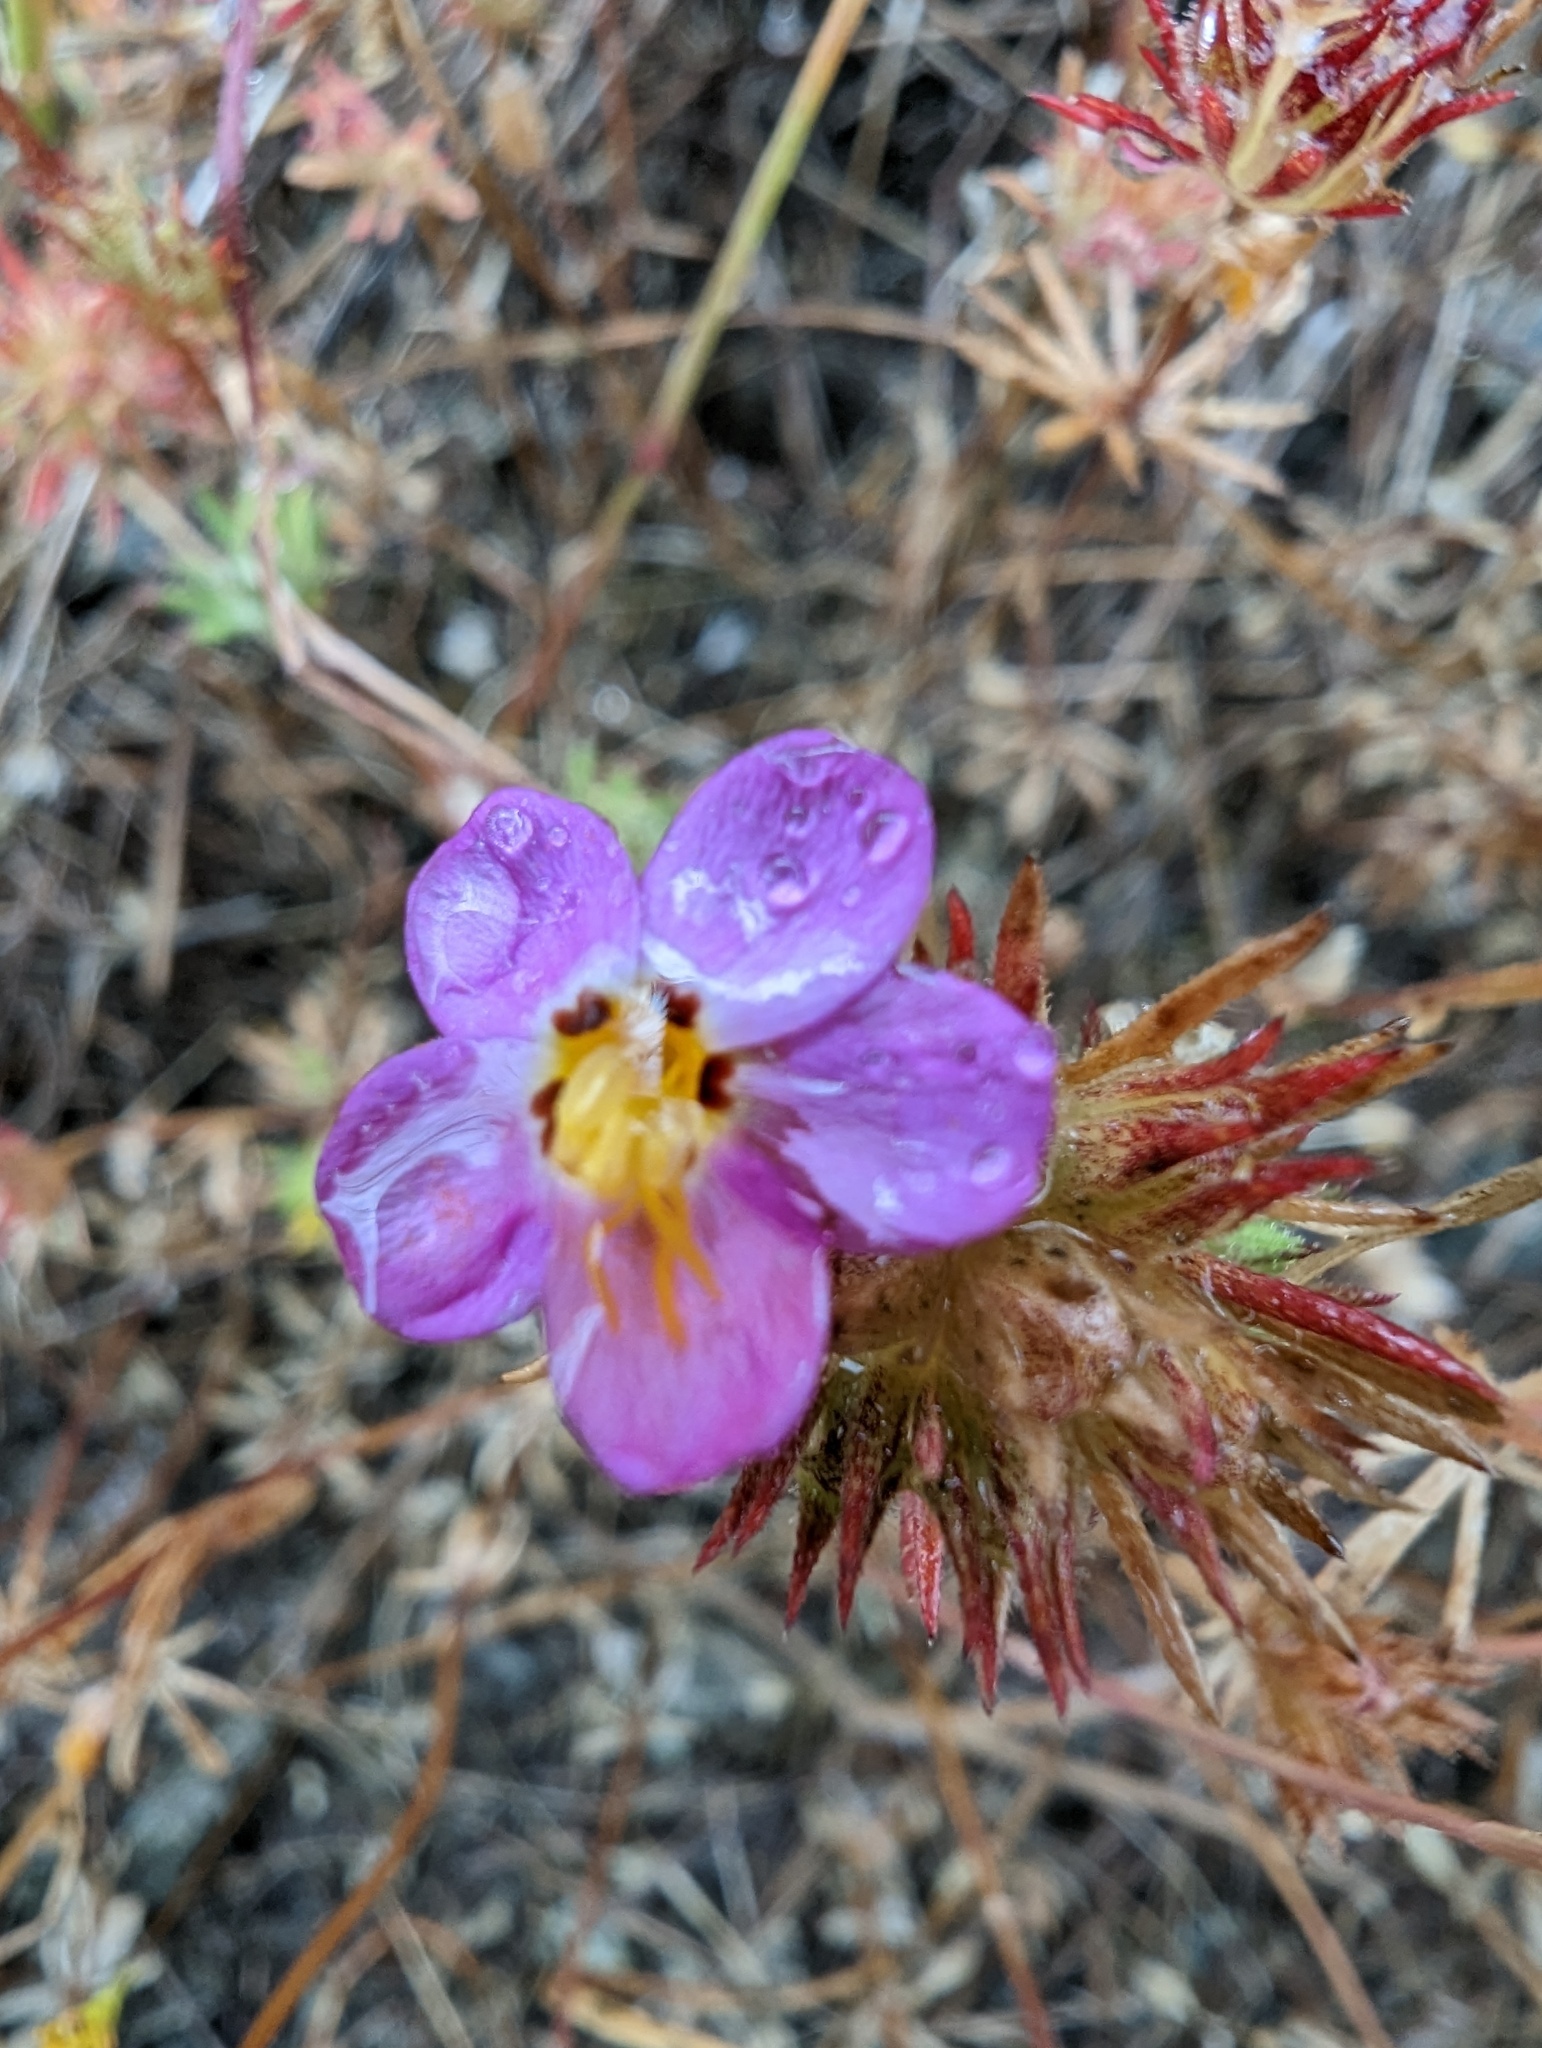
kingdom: Plantae
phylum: Tracheophyta
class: Magnoliopsida
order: Ericales
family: Polemoniaceae
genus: Leptosiphon
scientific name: Leptosiphon parviflorus
